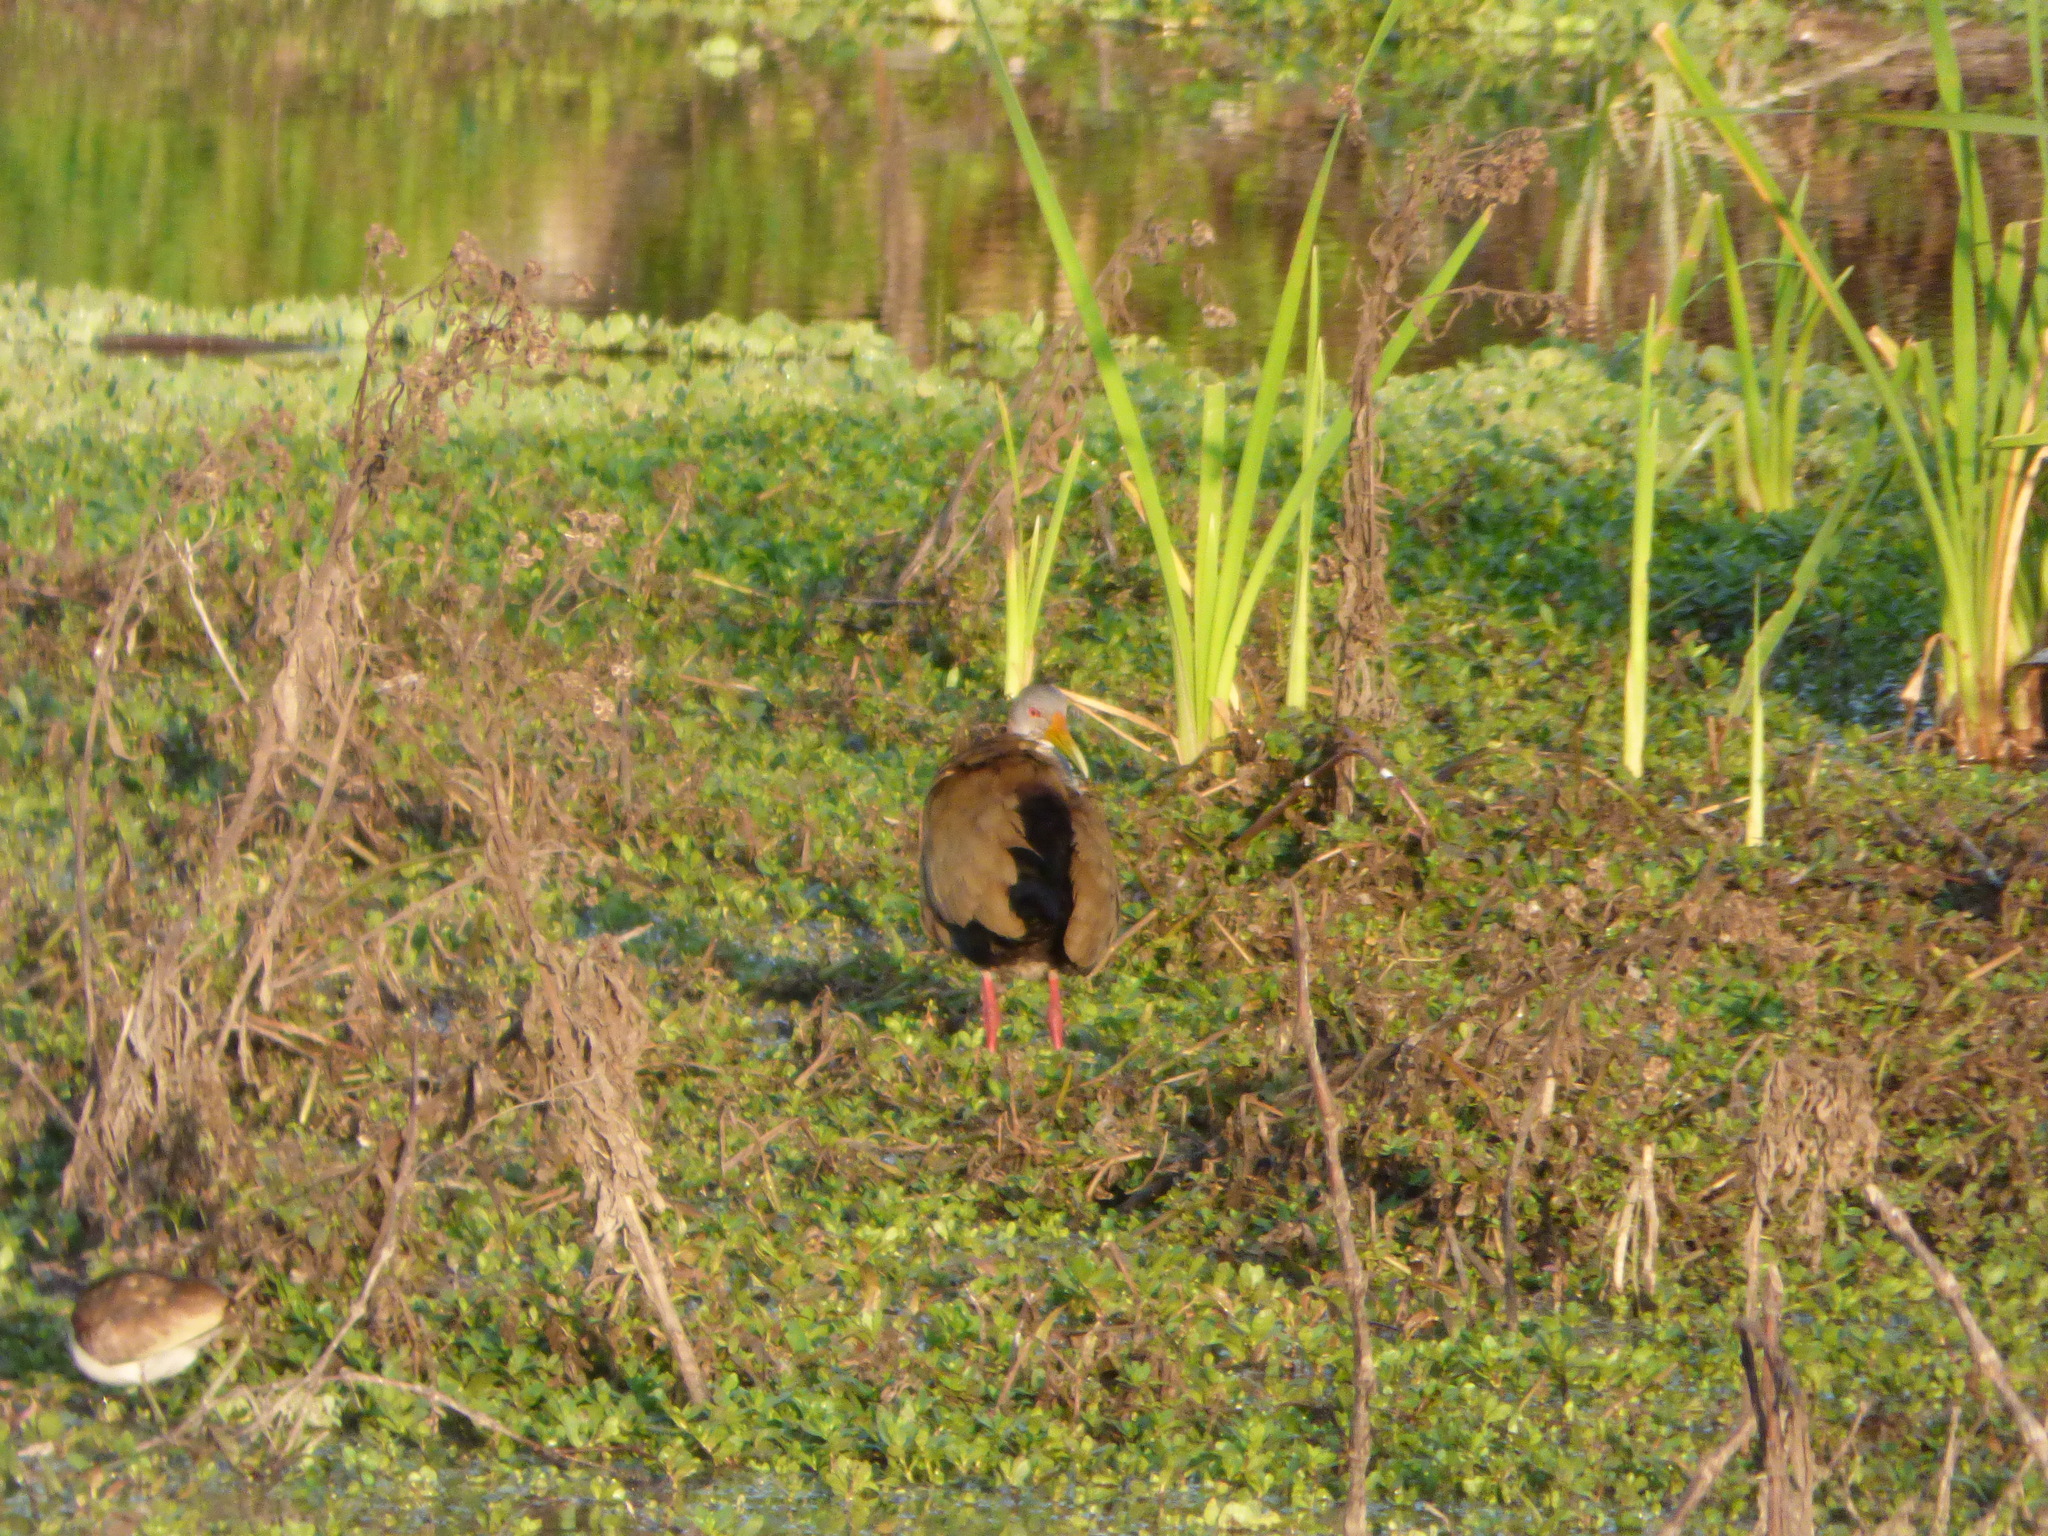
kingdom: Animalia
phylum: Chordata
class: Aves
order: Gruiformes
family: Rallidae
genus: Aramides
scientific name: Aramides ypecaha
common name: Giant wood rail
